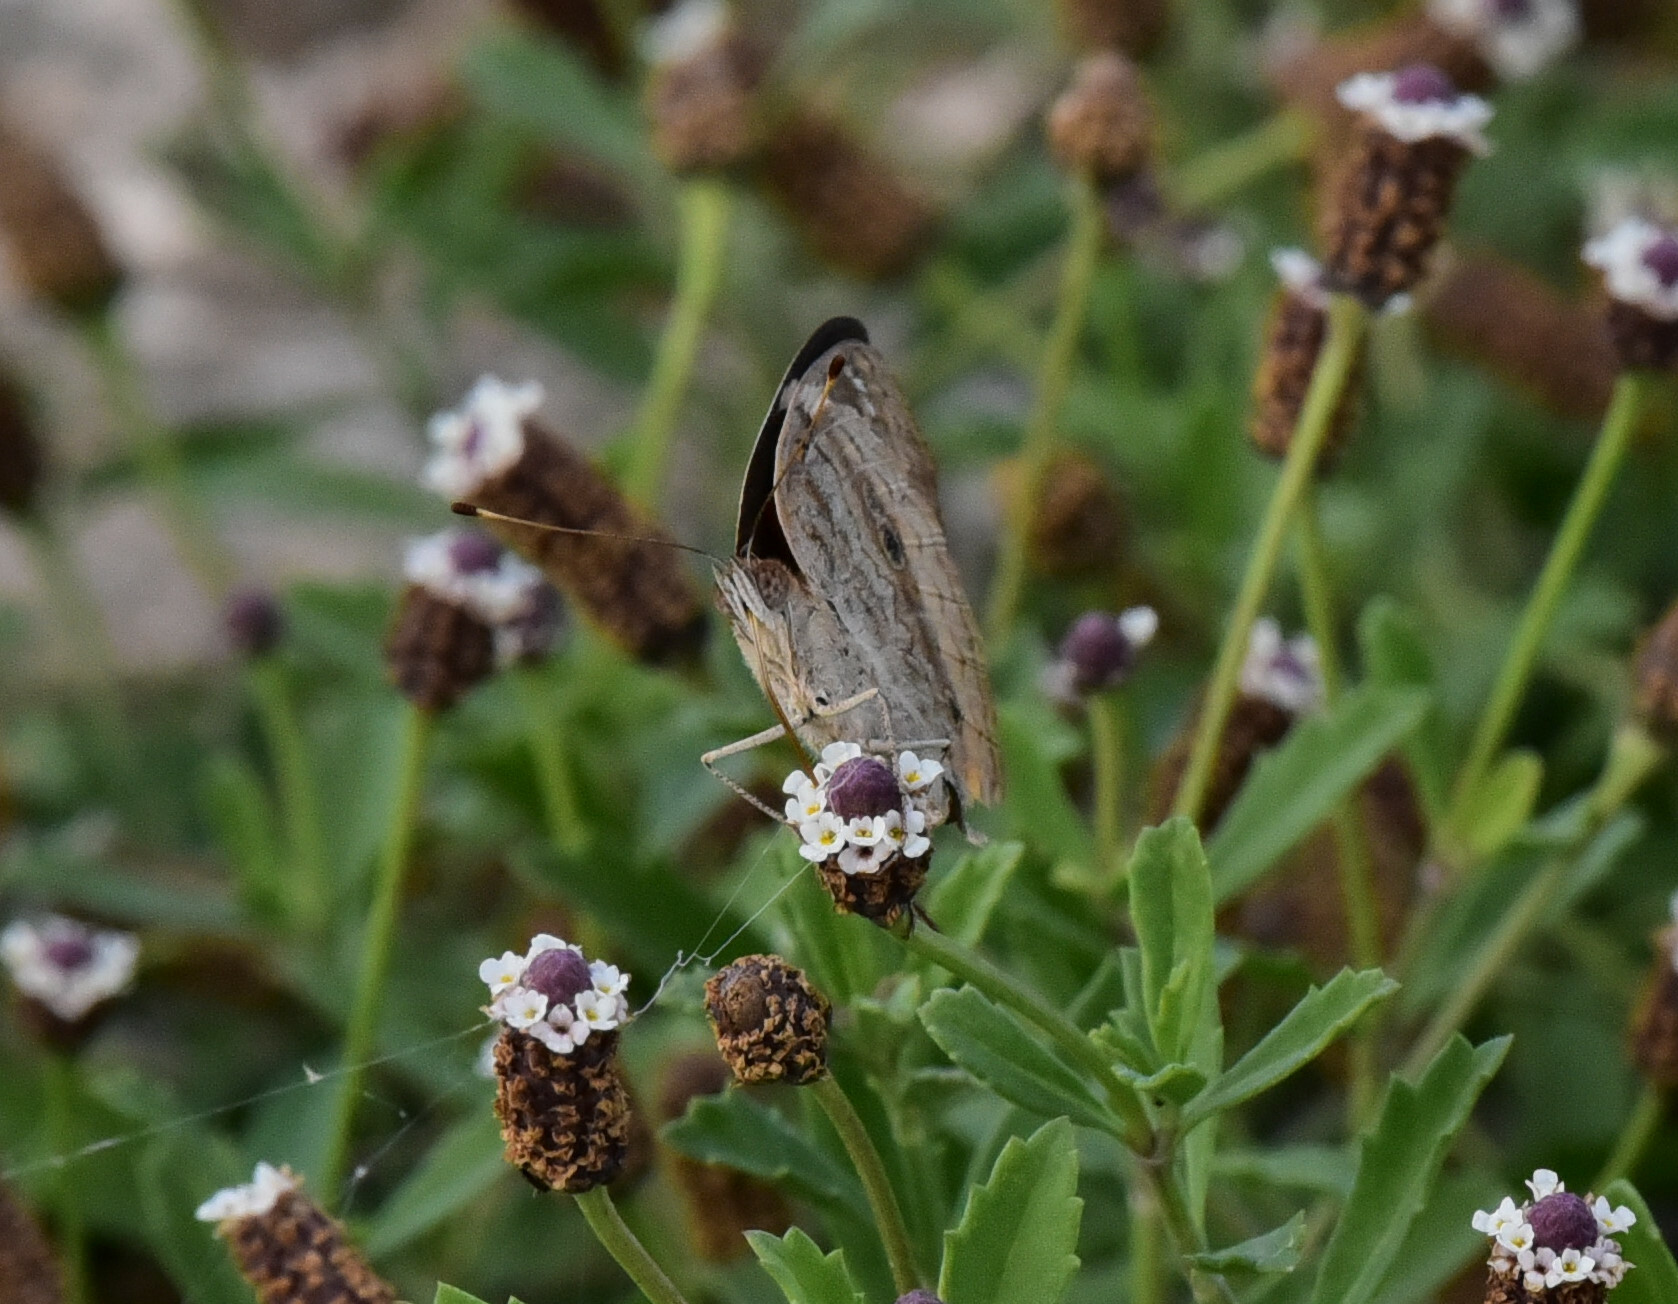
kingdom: Animalia
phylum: Arthropoda
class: Insecta
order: Lepidoptera
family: Nymphalidae
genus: Junonia
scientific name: Junonia coenia
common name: Common buckeye
